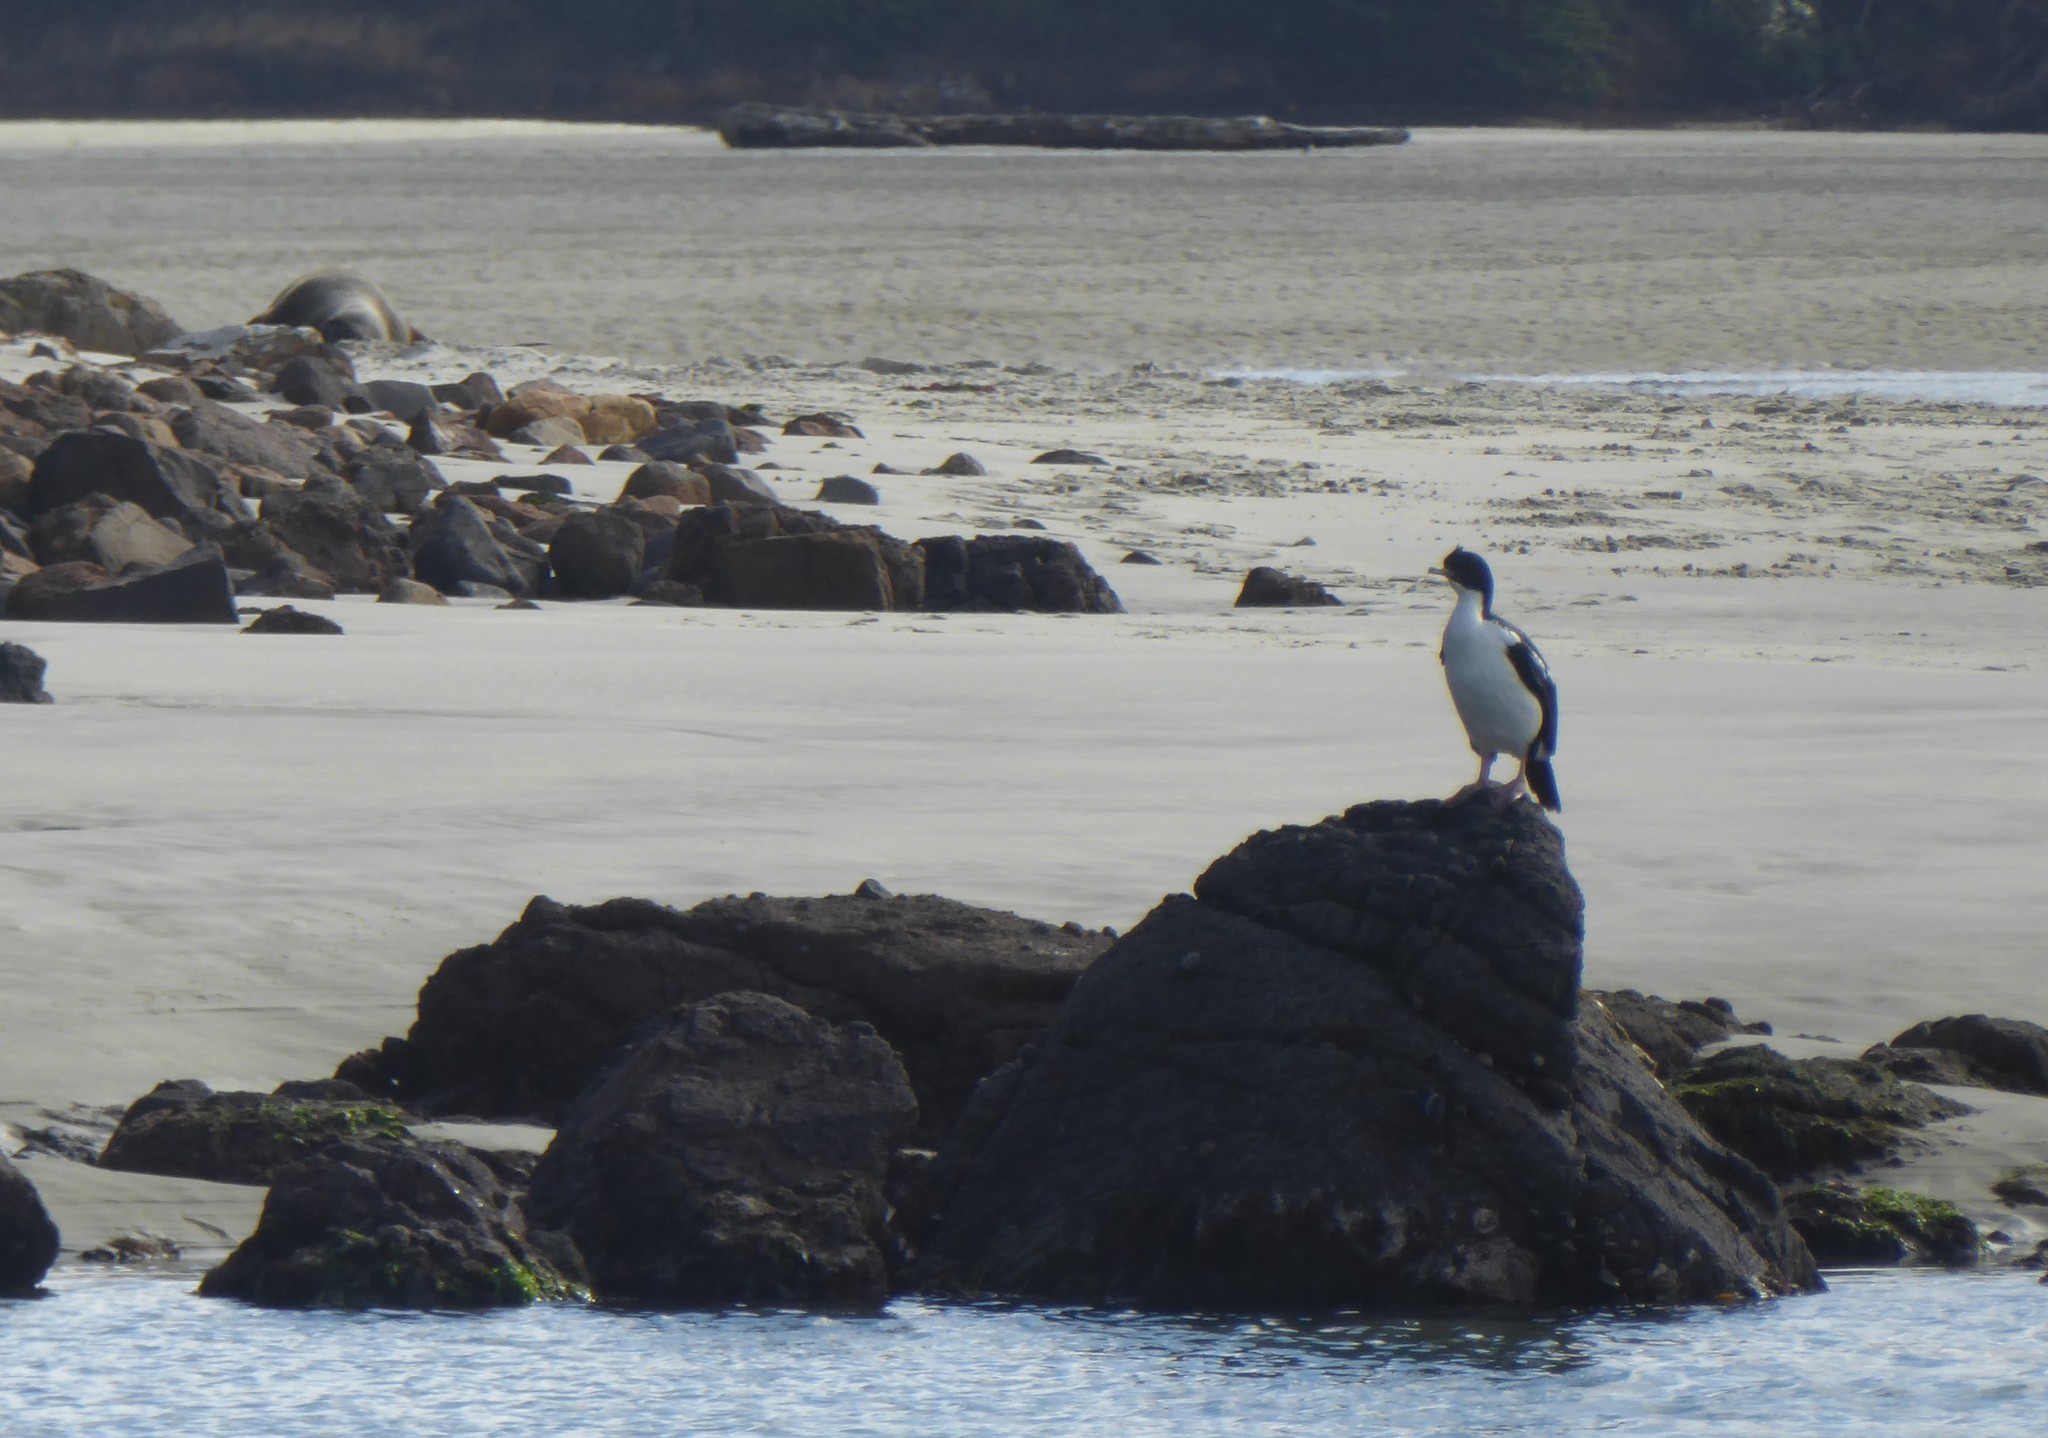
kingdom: Animalia
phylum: Chordata
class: Aves
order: Suliformes
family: Phalacrocoracidae
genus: Leucocarbo
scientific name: Leucocarbo chalconotus
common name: Stewart shag
